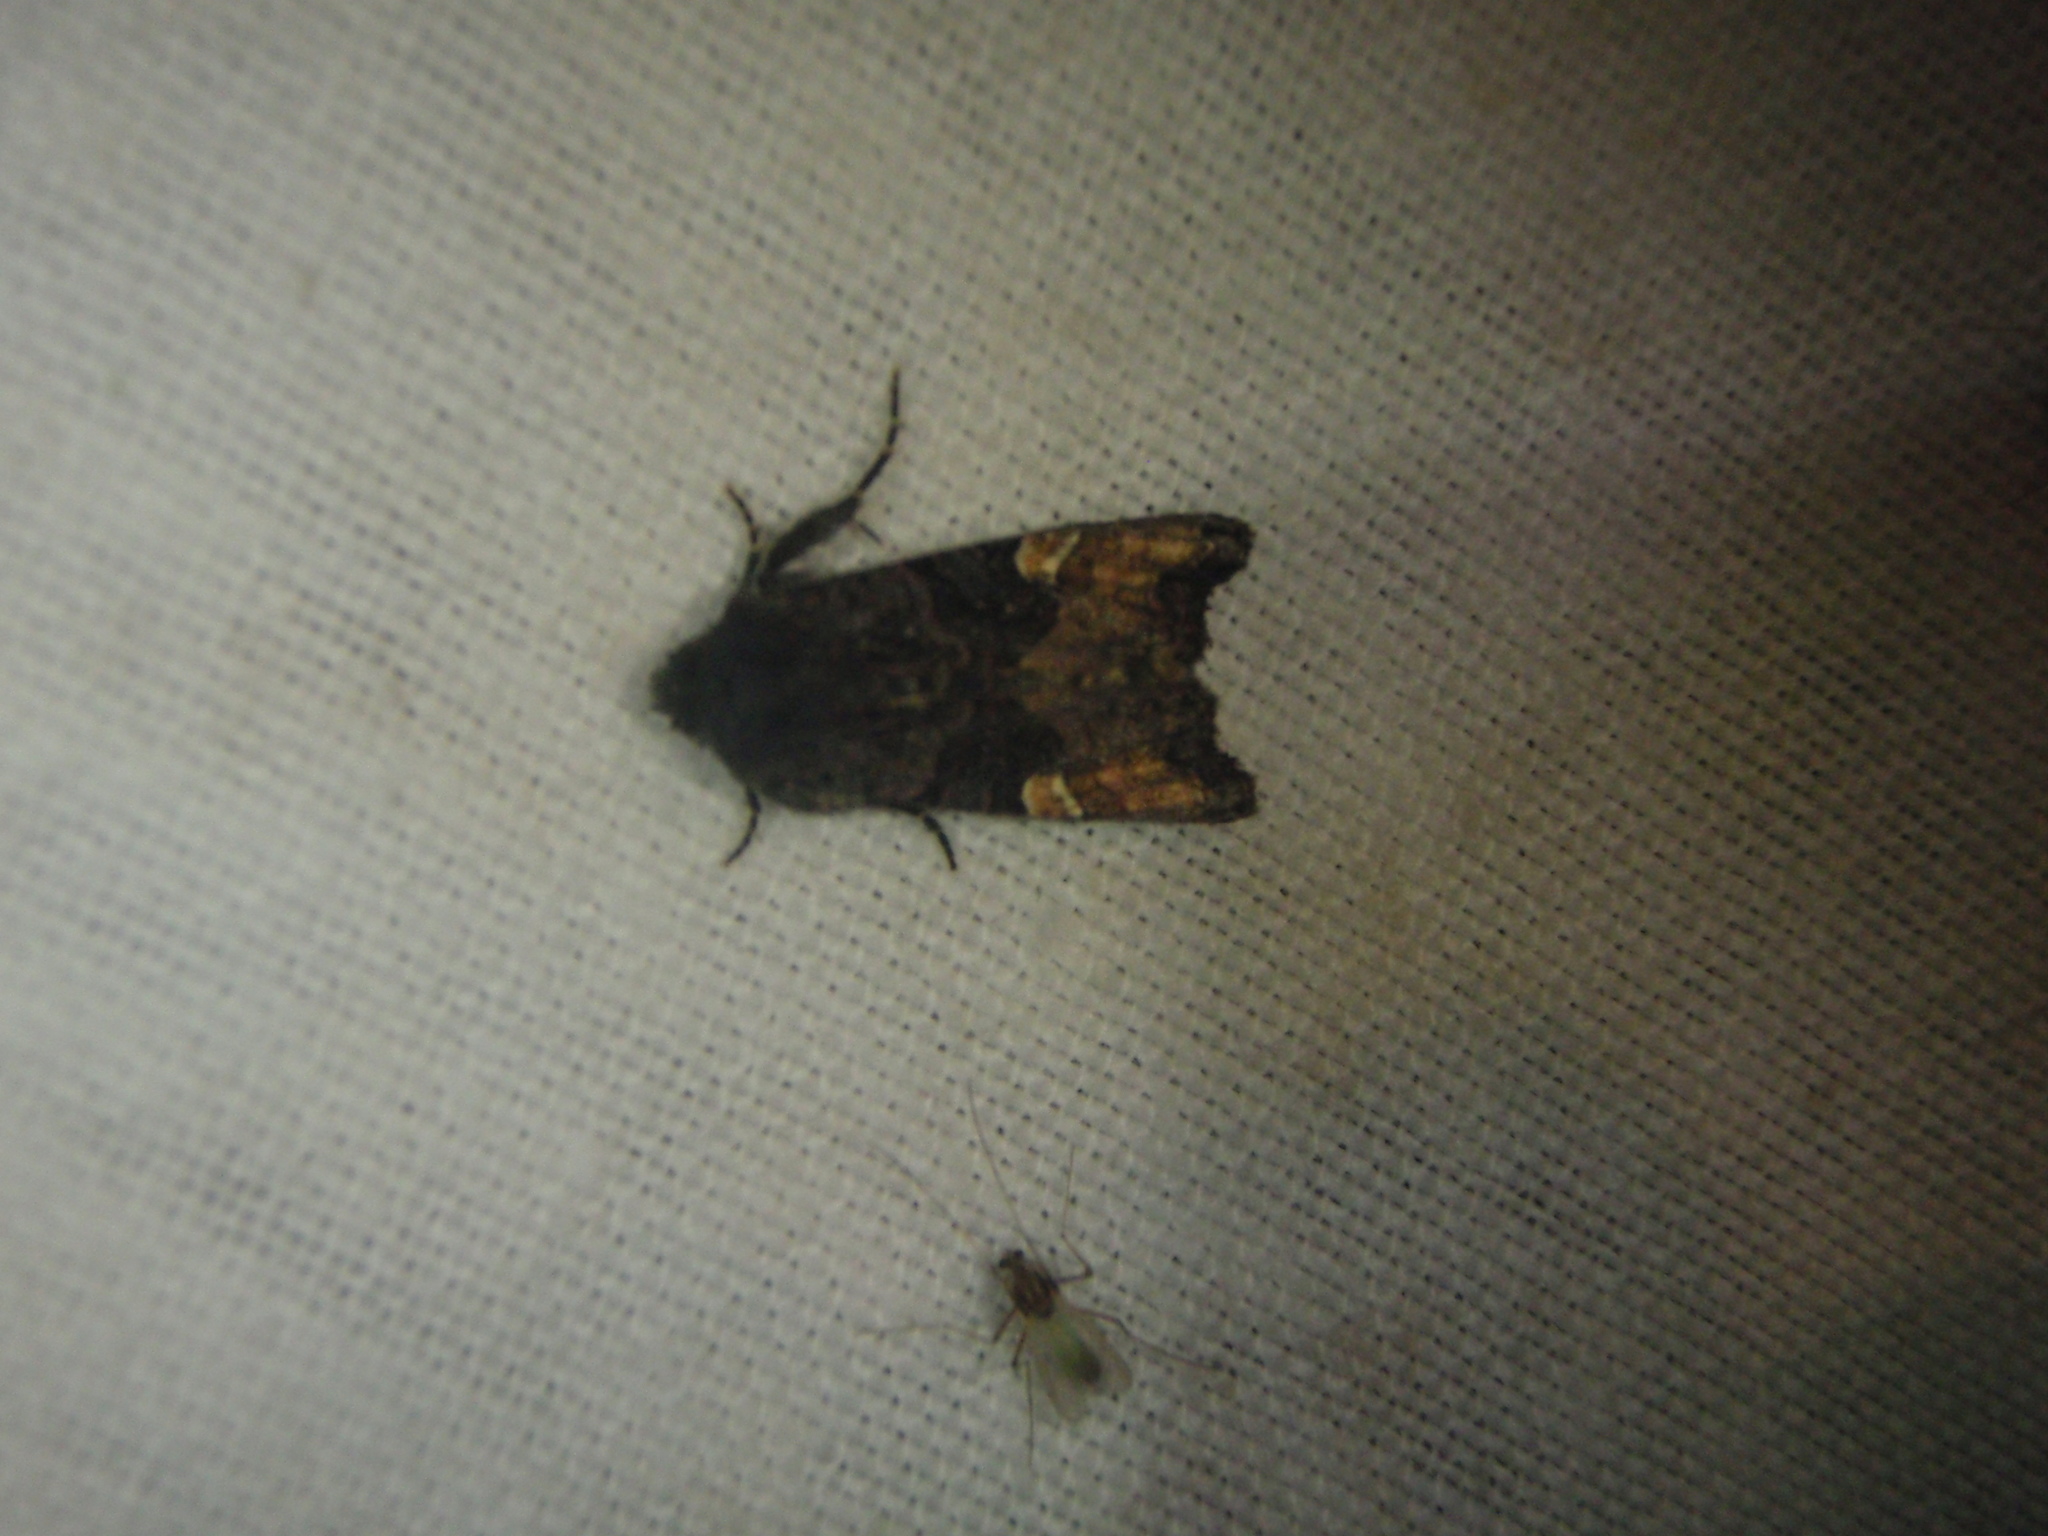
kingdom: Animalia
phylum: Arthropoda
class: Insecta
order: Lepidoptera
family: Noctuidae
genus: Euplexia
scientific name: Euplexia benesimilis
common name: American angle shades
